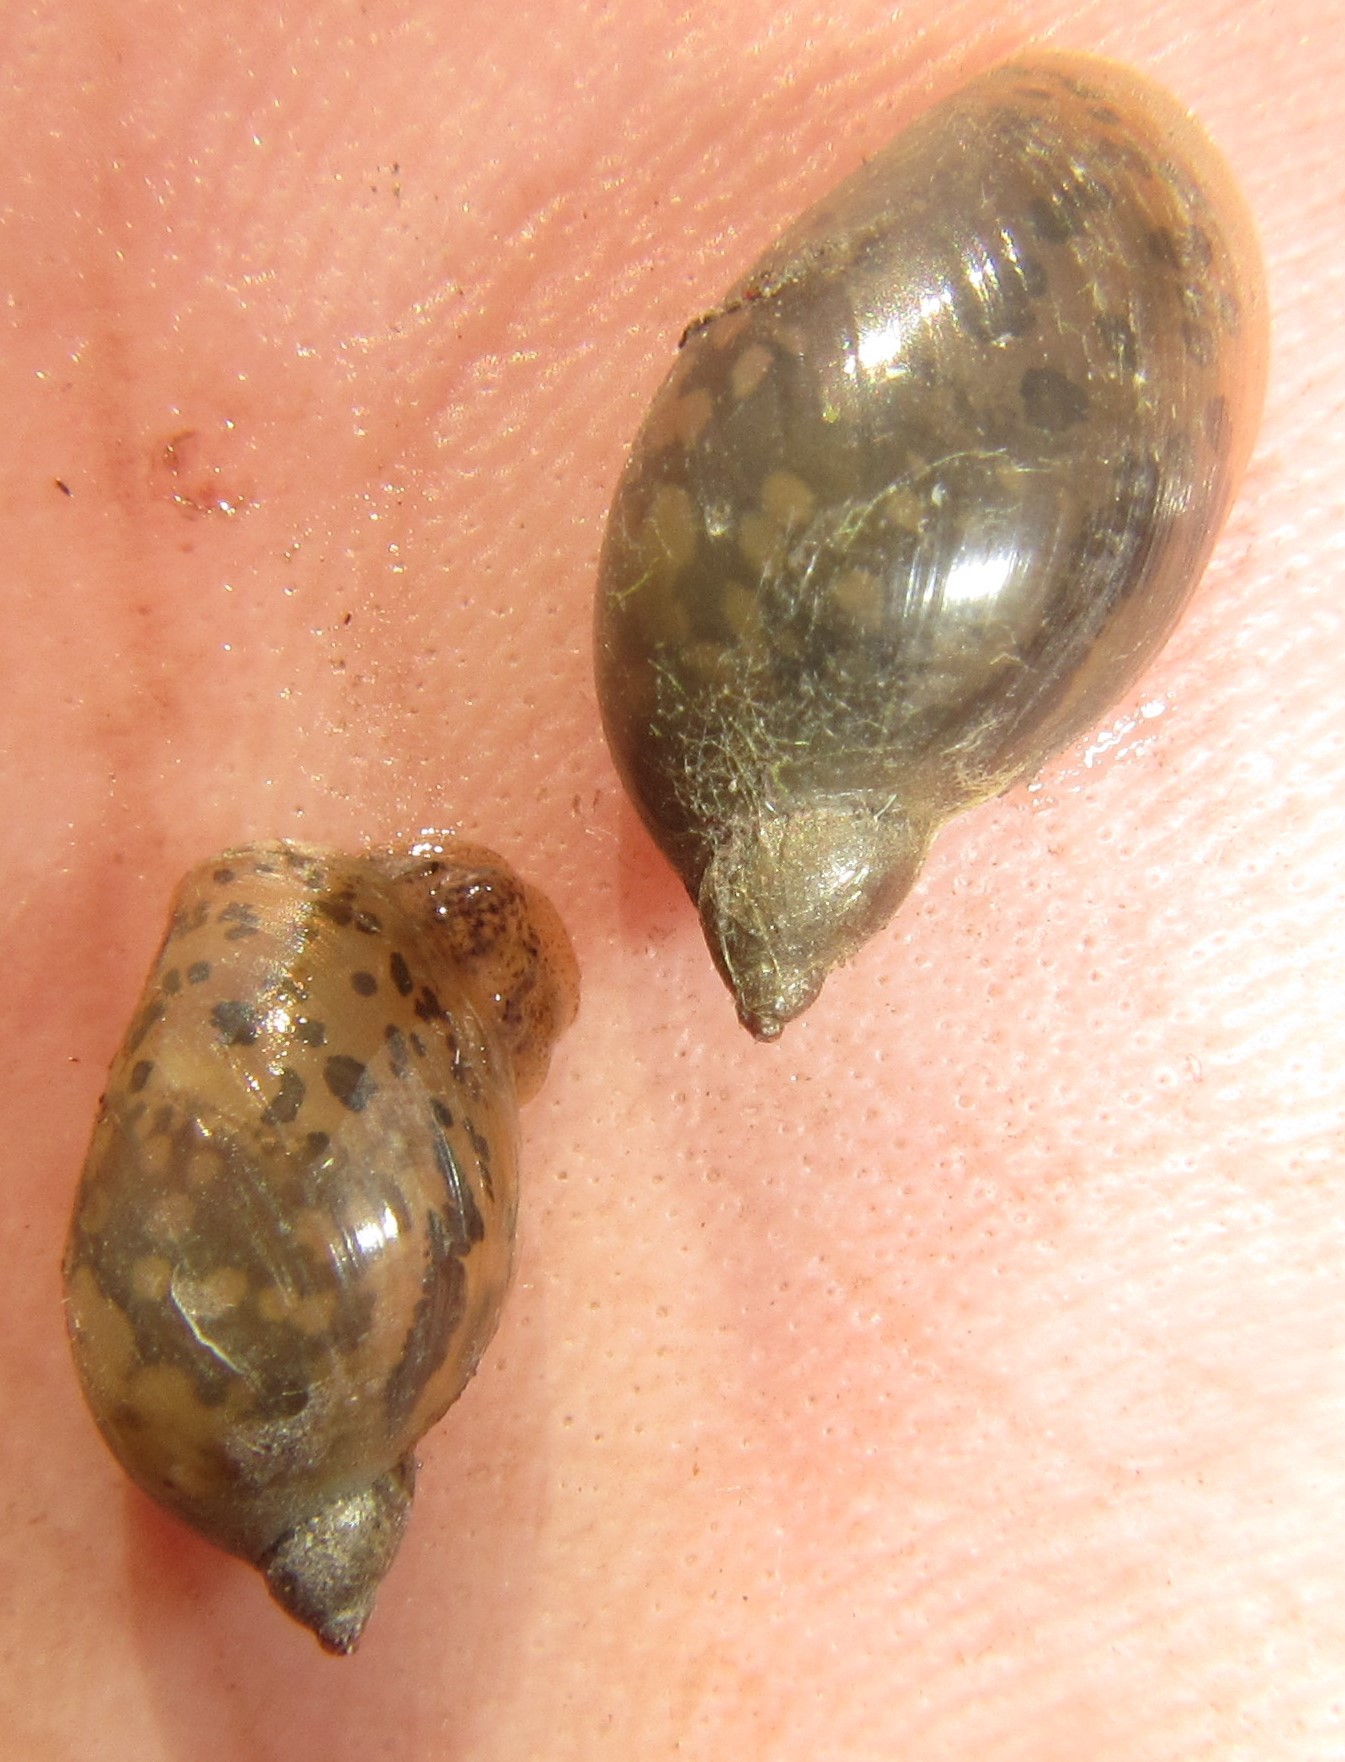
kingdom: Animalia
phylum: Mollusca
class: Gastropoda
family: Lymnaeidae
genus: Radix
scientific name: Radix natalensis
